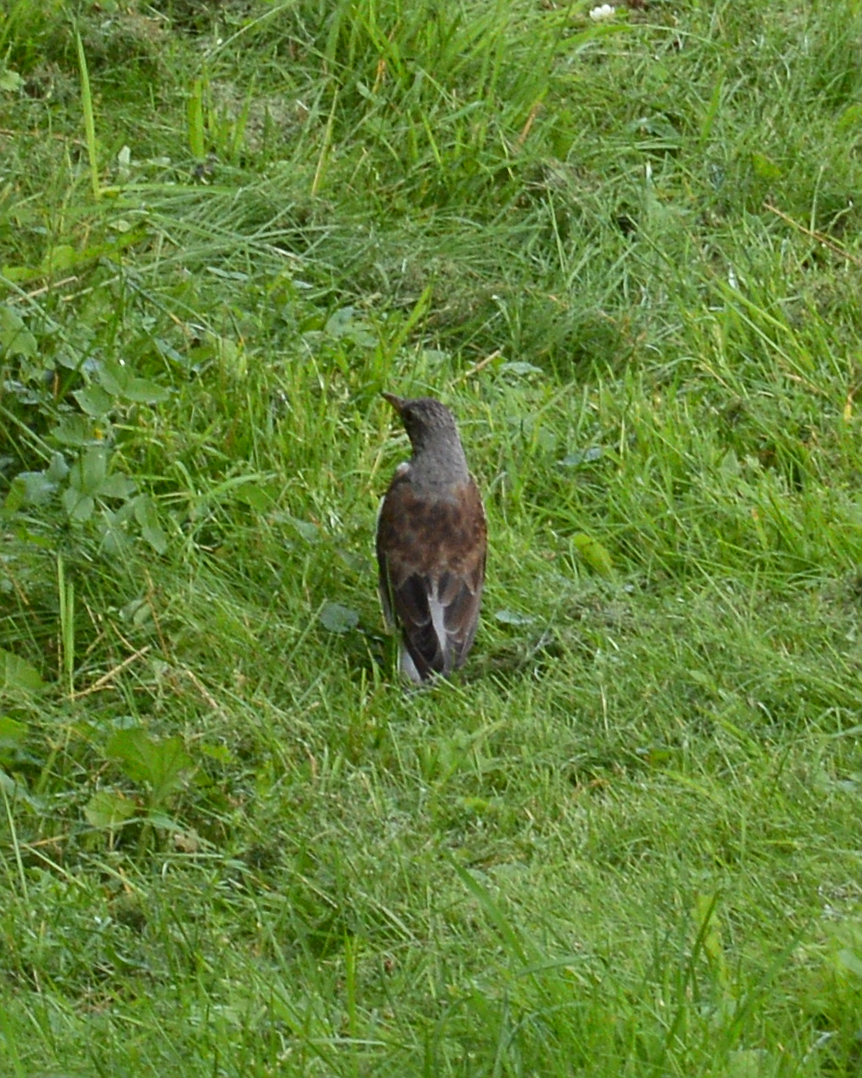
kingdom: Animalia
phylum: Chordata
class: Aves
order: Passeriformes
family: Turdidae
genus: Turdus
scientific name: Turdus pilaris
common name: Fieldfare
